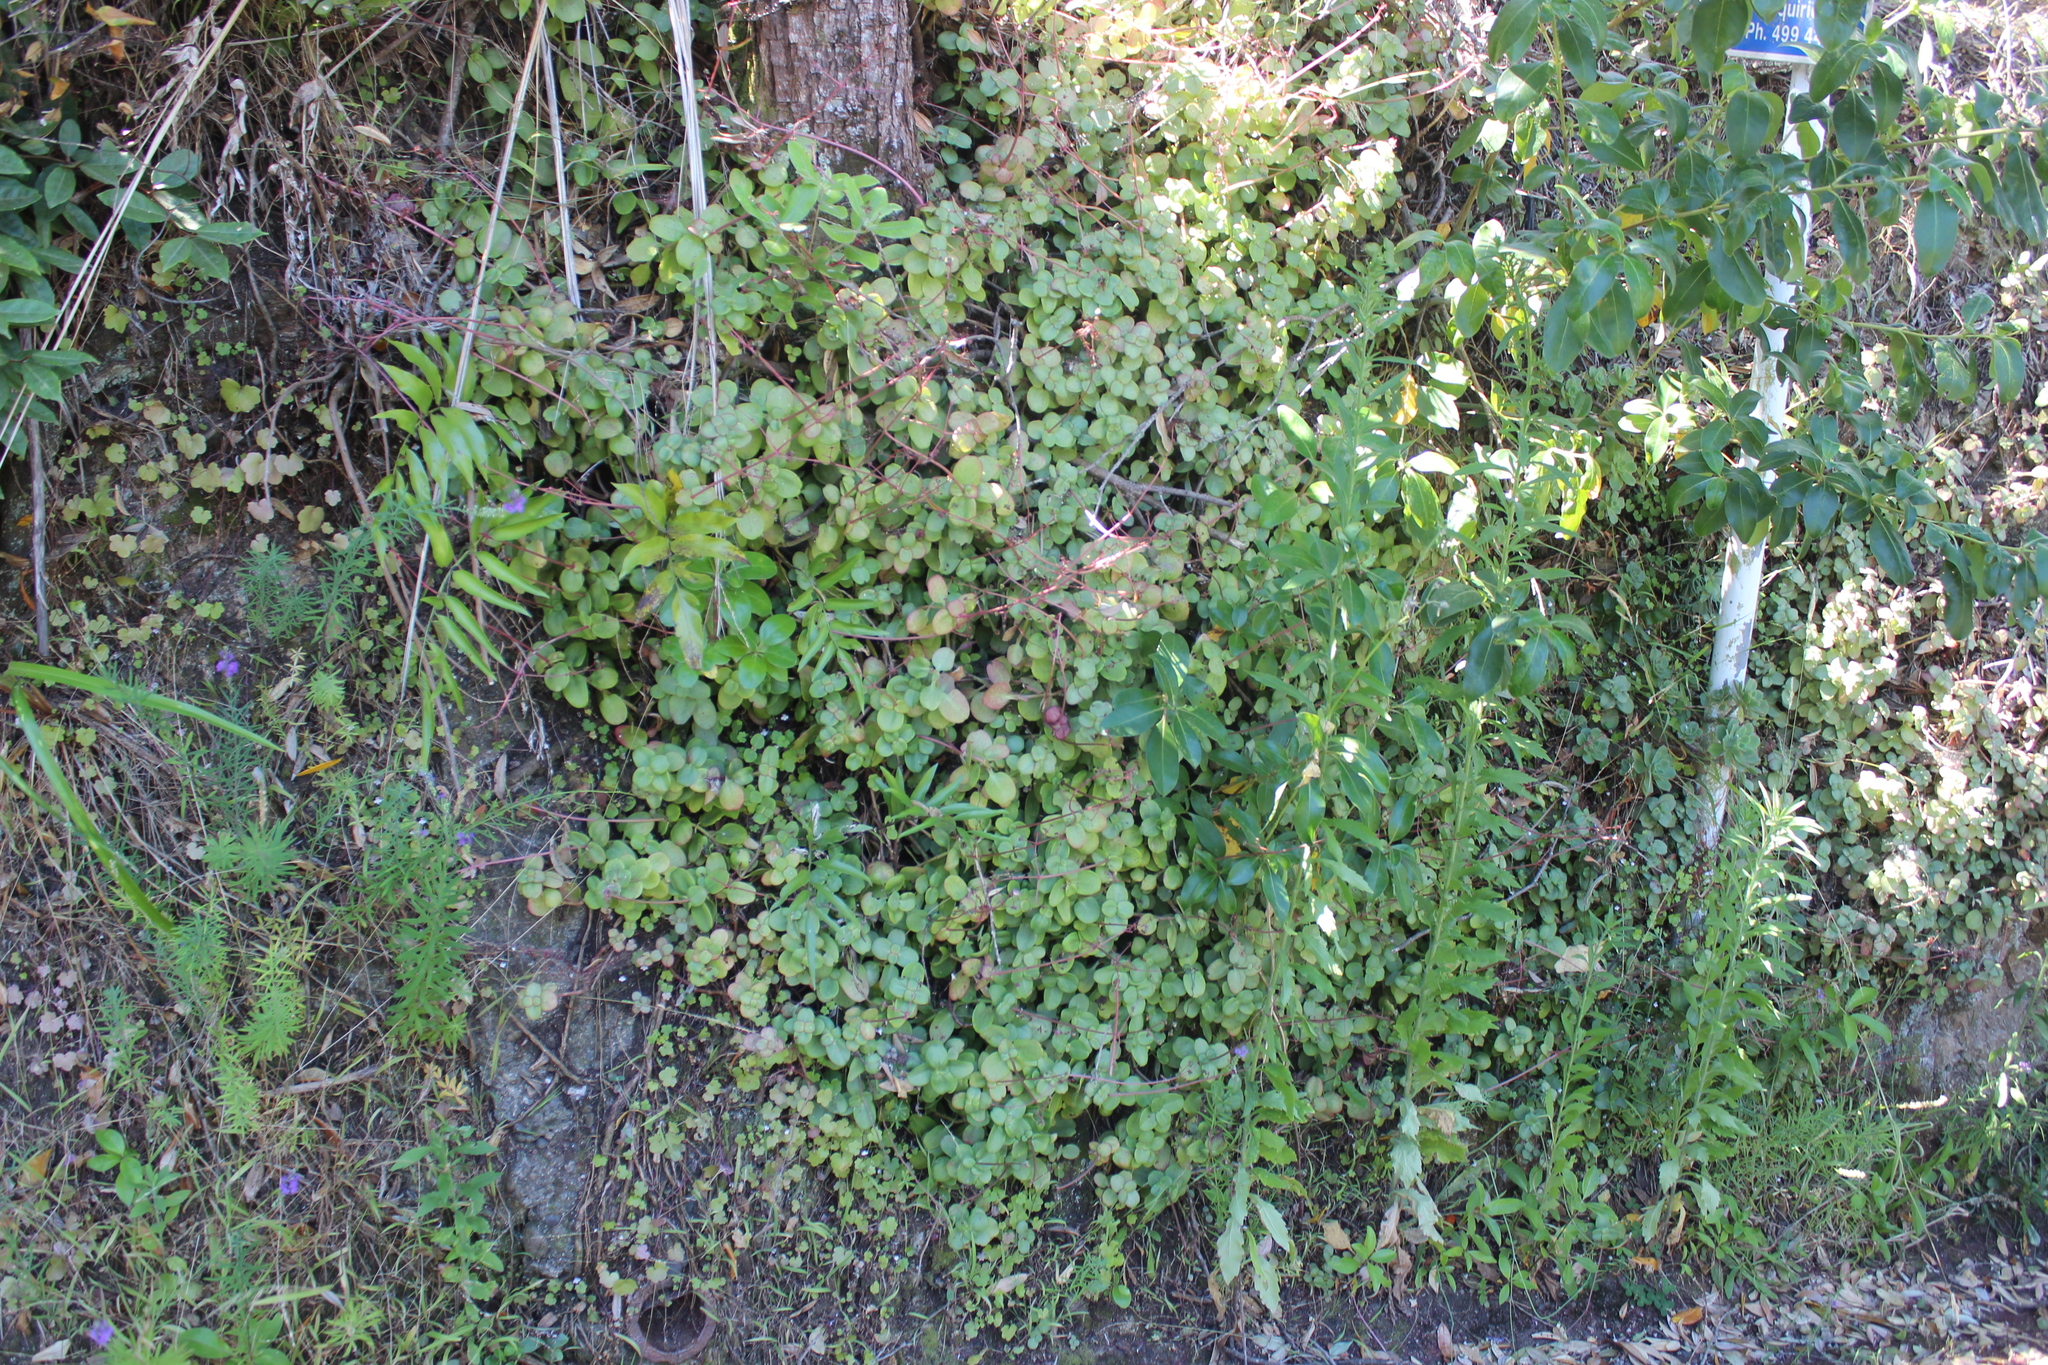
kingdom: Plantae
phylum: Tracheophyta
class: Magnoliopsida
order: Saxifragales
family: Crassulaceae
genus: Crassula
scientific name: Crassula multicava
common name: Cape province pygmyweed
